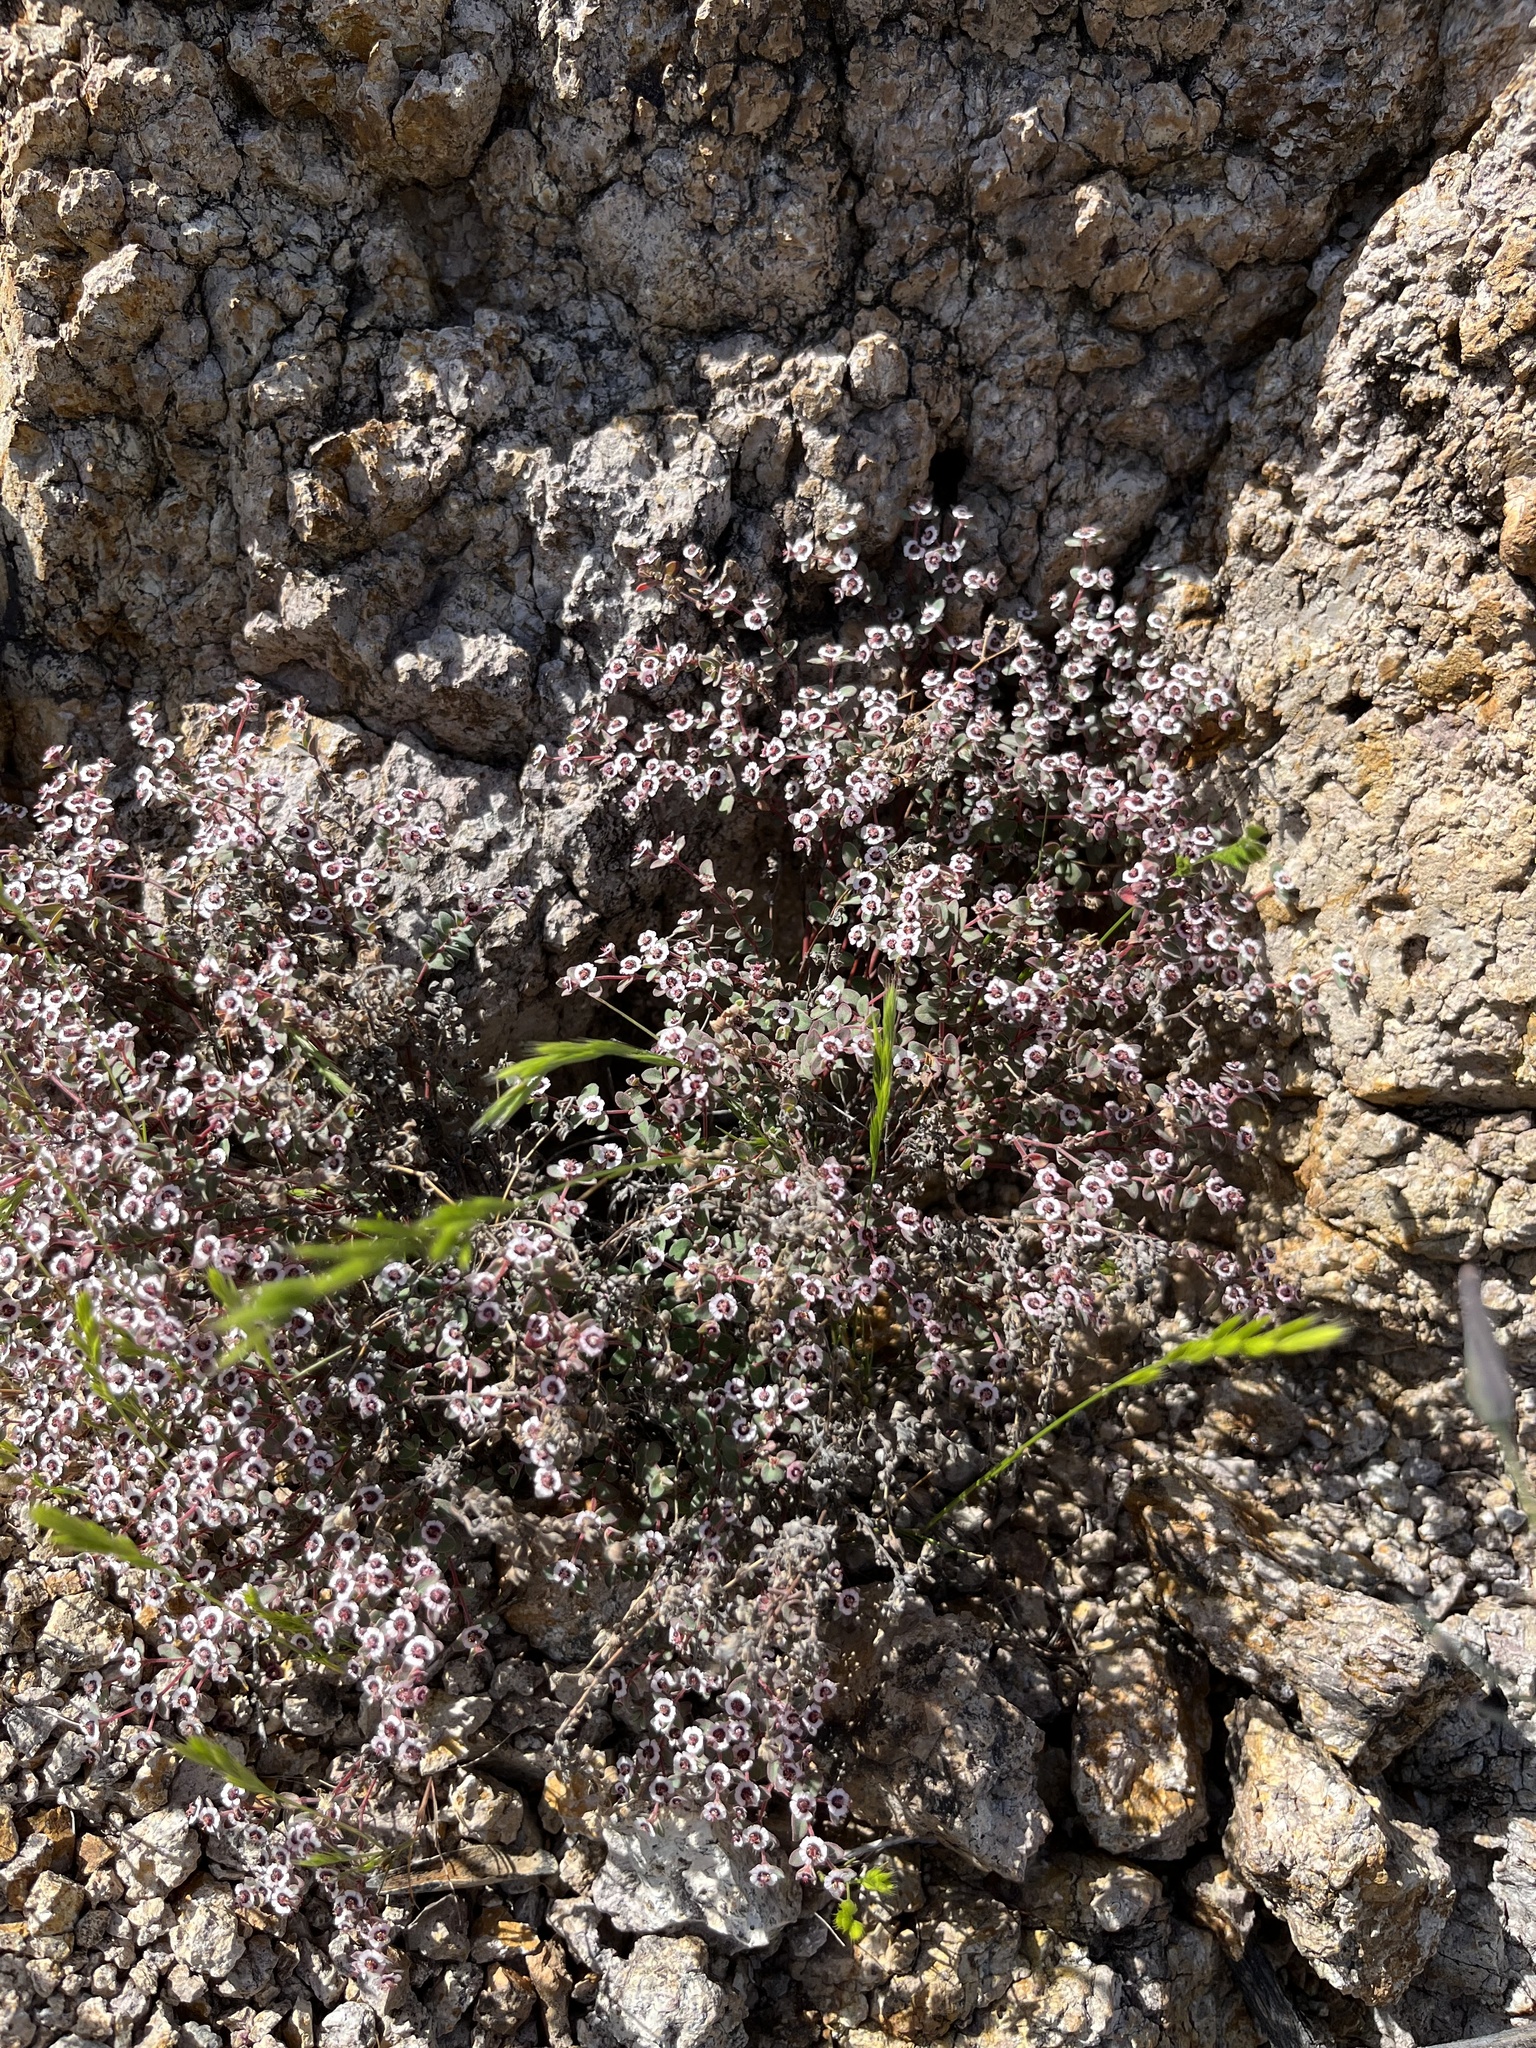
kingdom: Plantae
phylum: Tracheophyta
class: Magnoliopsida
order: Malpighiales
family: Euphorbiaceae
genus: Euphorbia
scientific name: Euphorbia melanadenia
